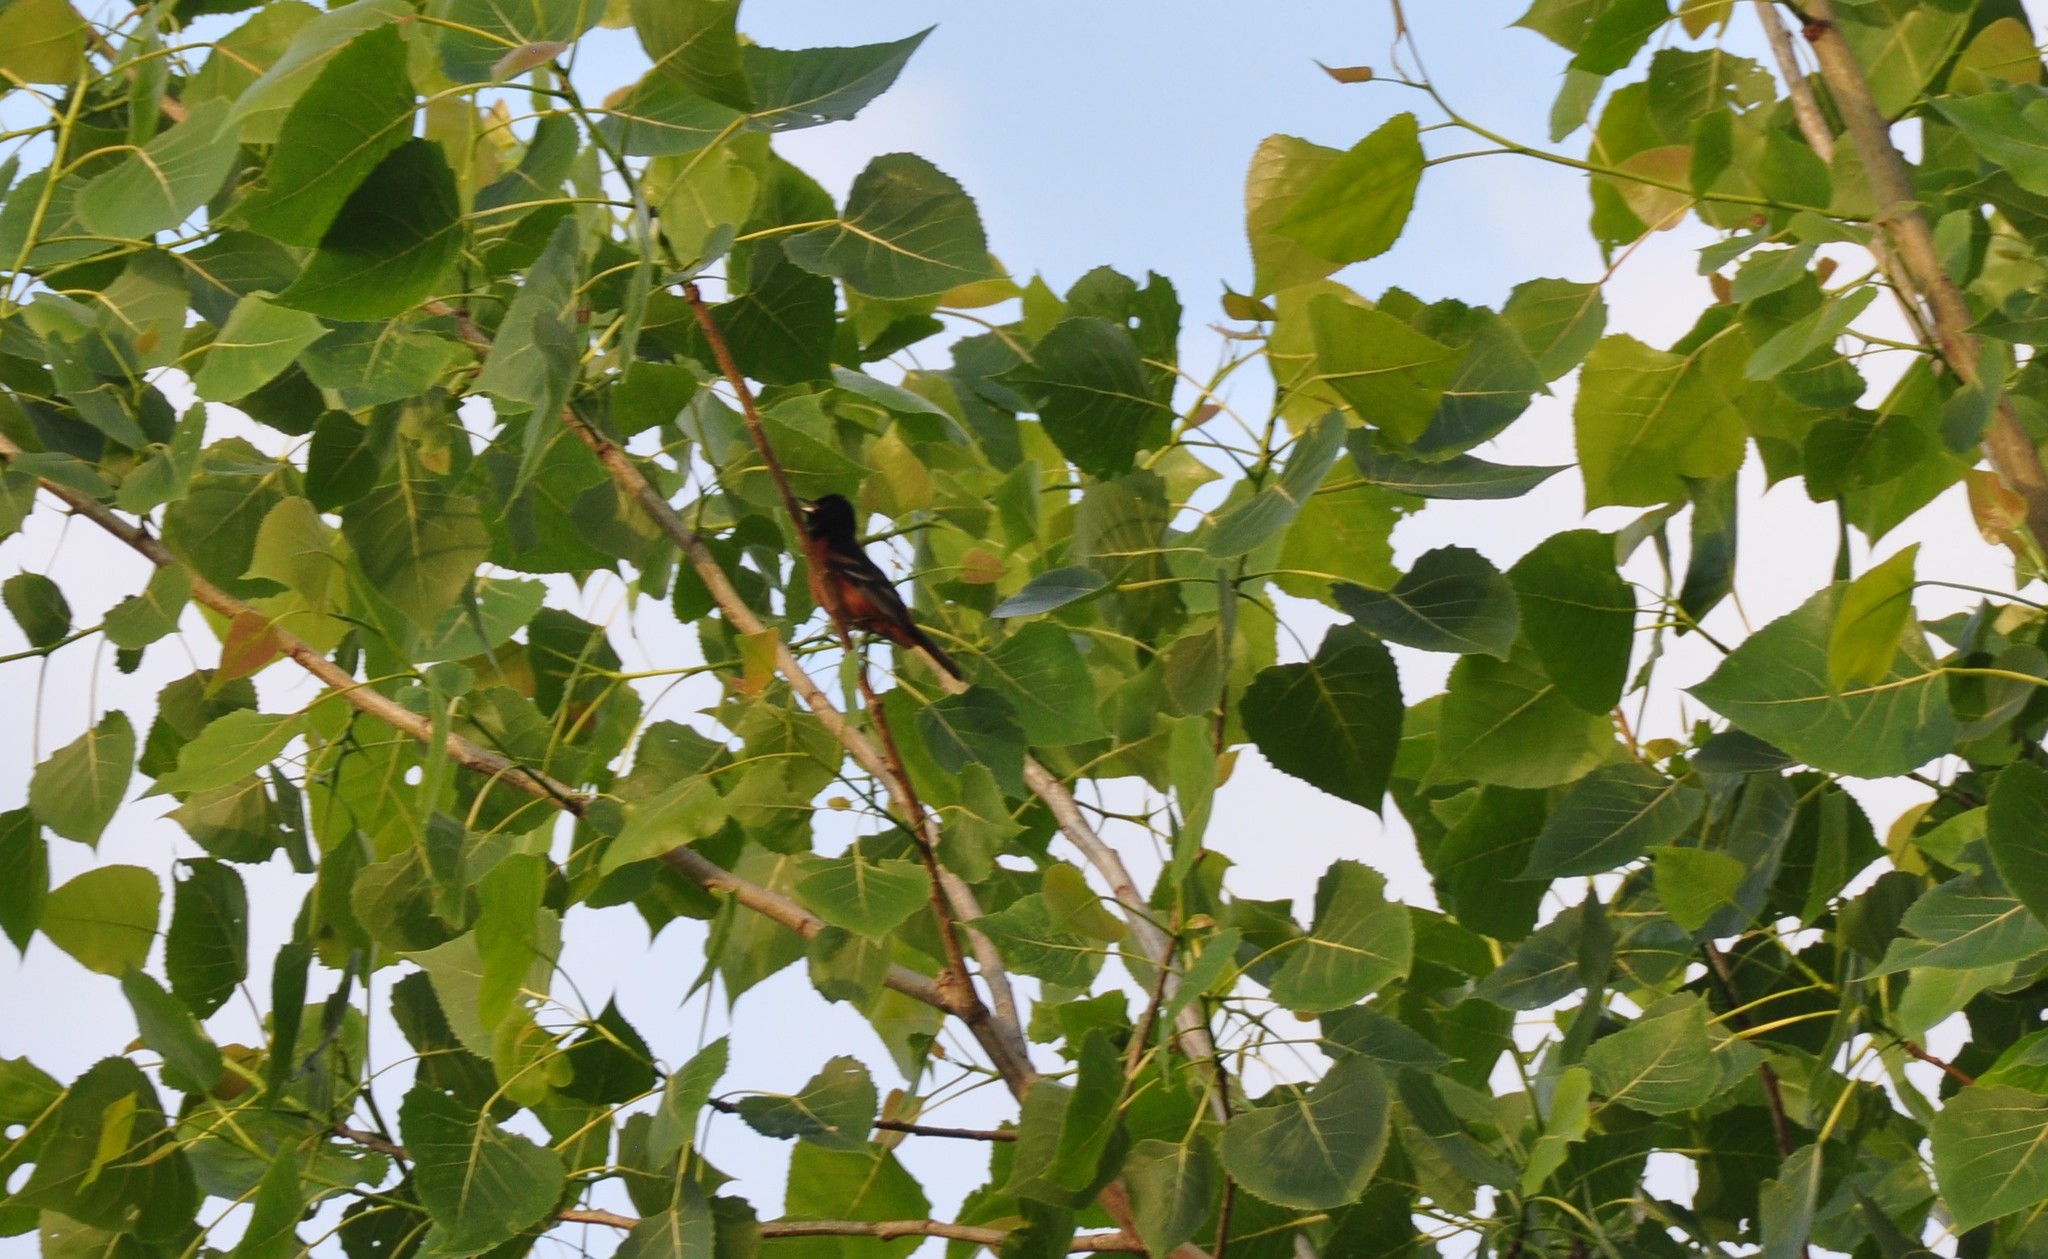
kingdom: Animalia
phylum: Chordata
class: Aves
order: Passeriformes
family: Icteridae
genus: Icterus
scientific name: Icterus spurius
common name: Orchard oriole
